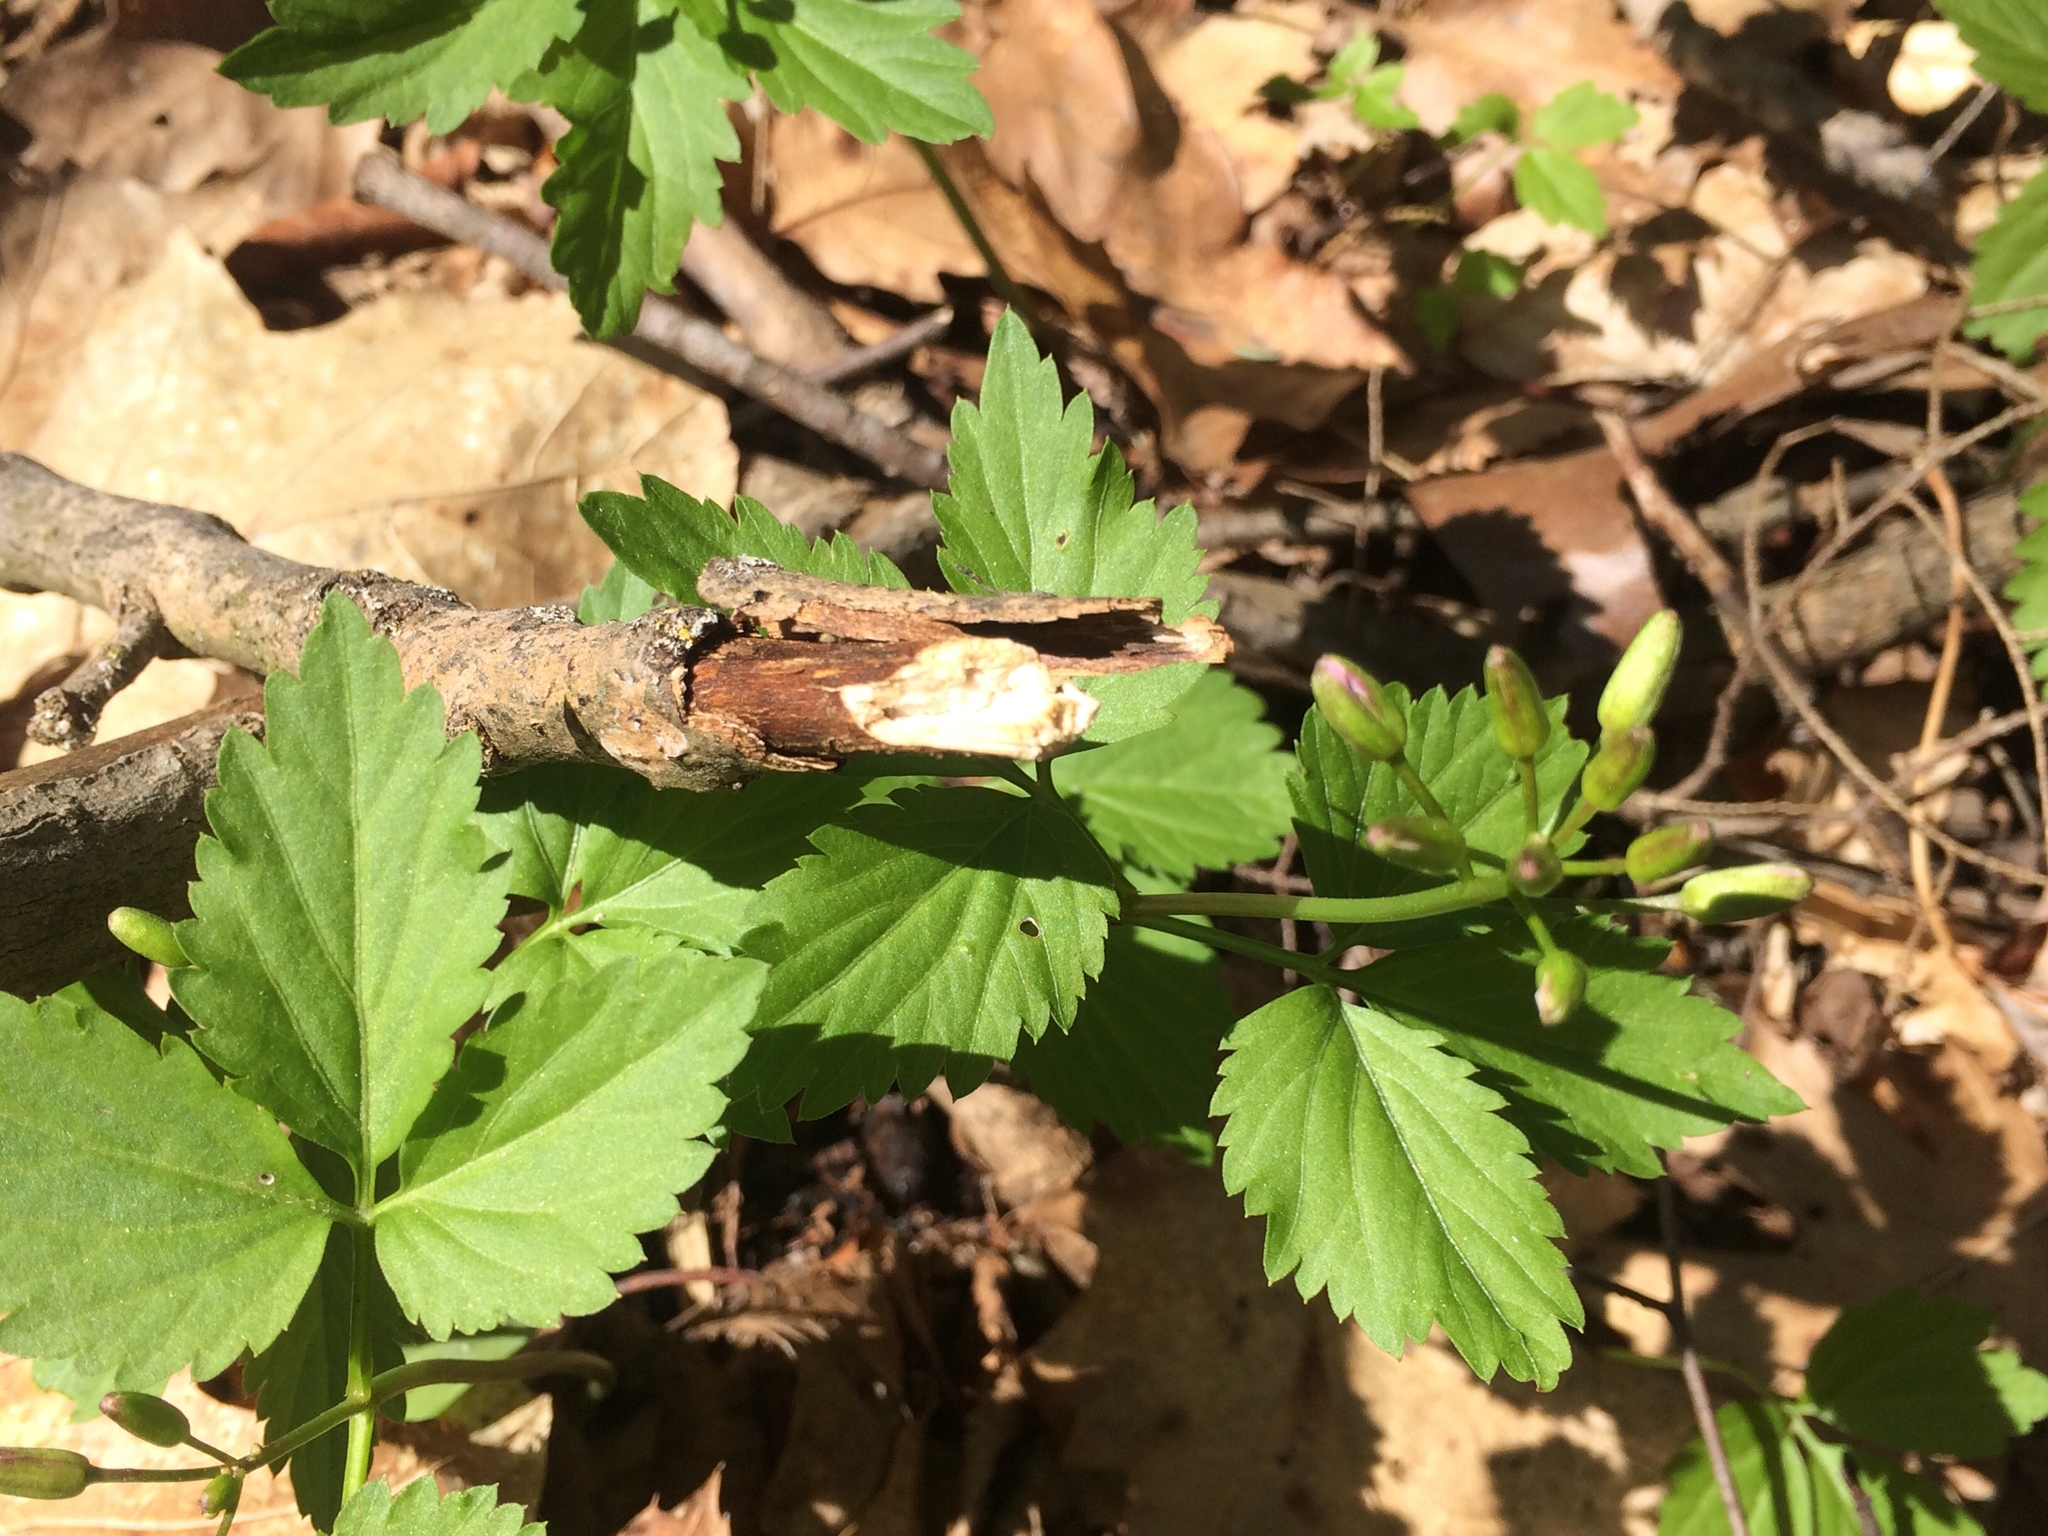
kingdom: Plantae
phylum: Tracheophyta
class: Magnoliopsida
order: Brassicales
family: Brassicaceae
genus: Cardamine
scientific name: Cardamine diphylla
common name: Broad-leaved toothwort
